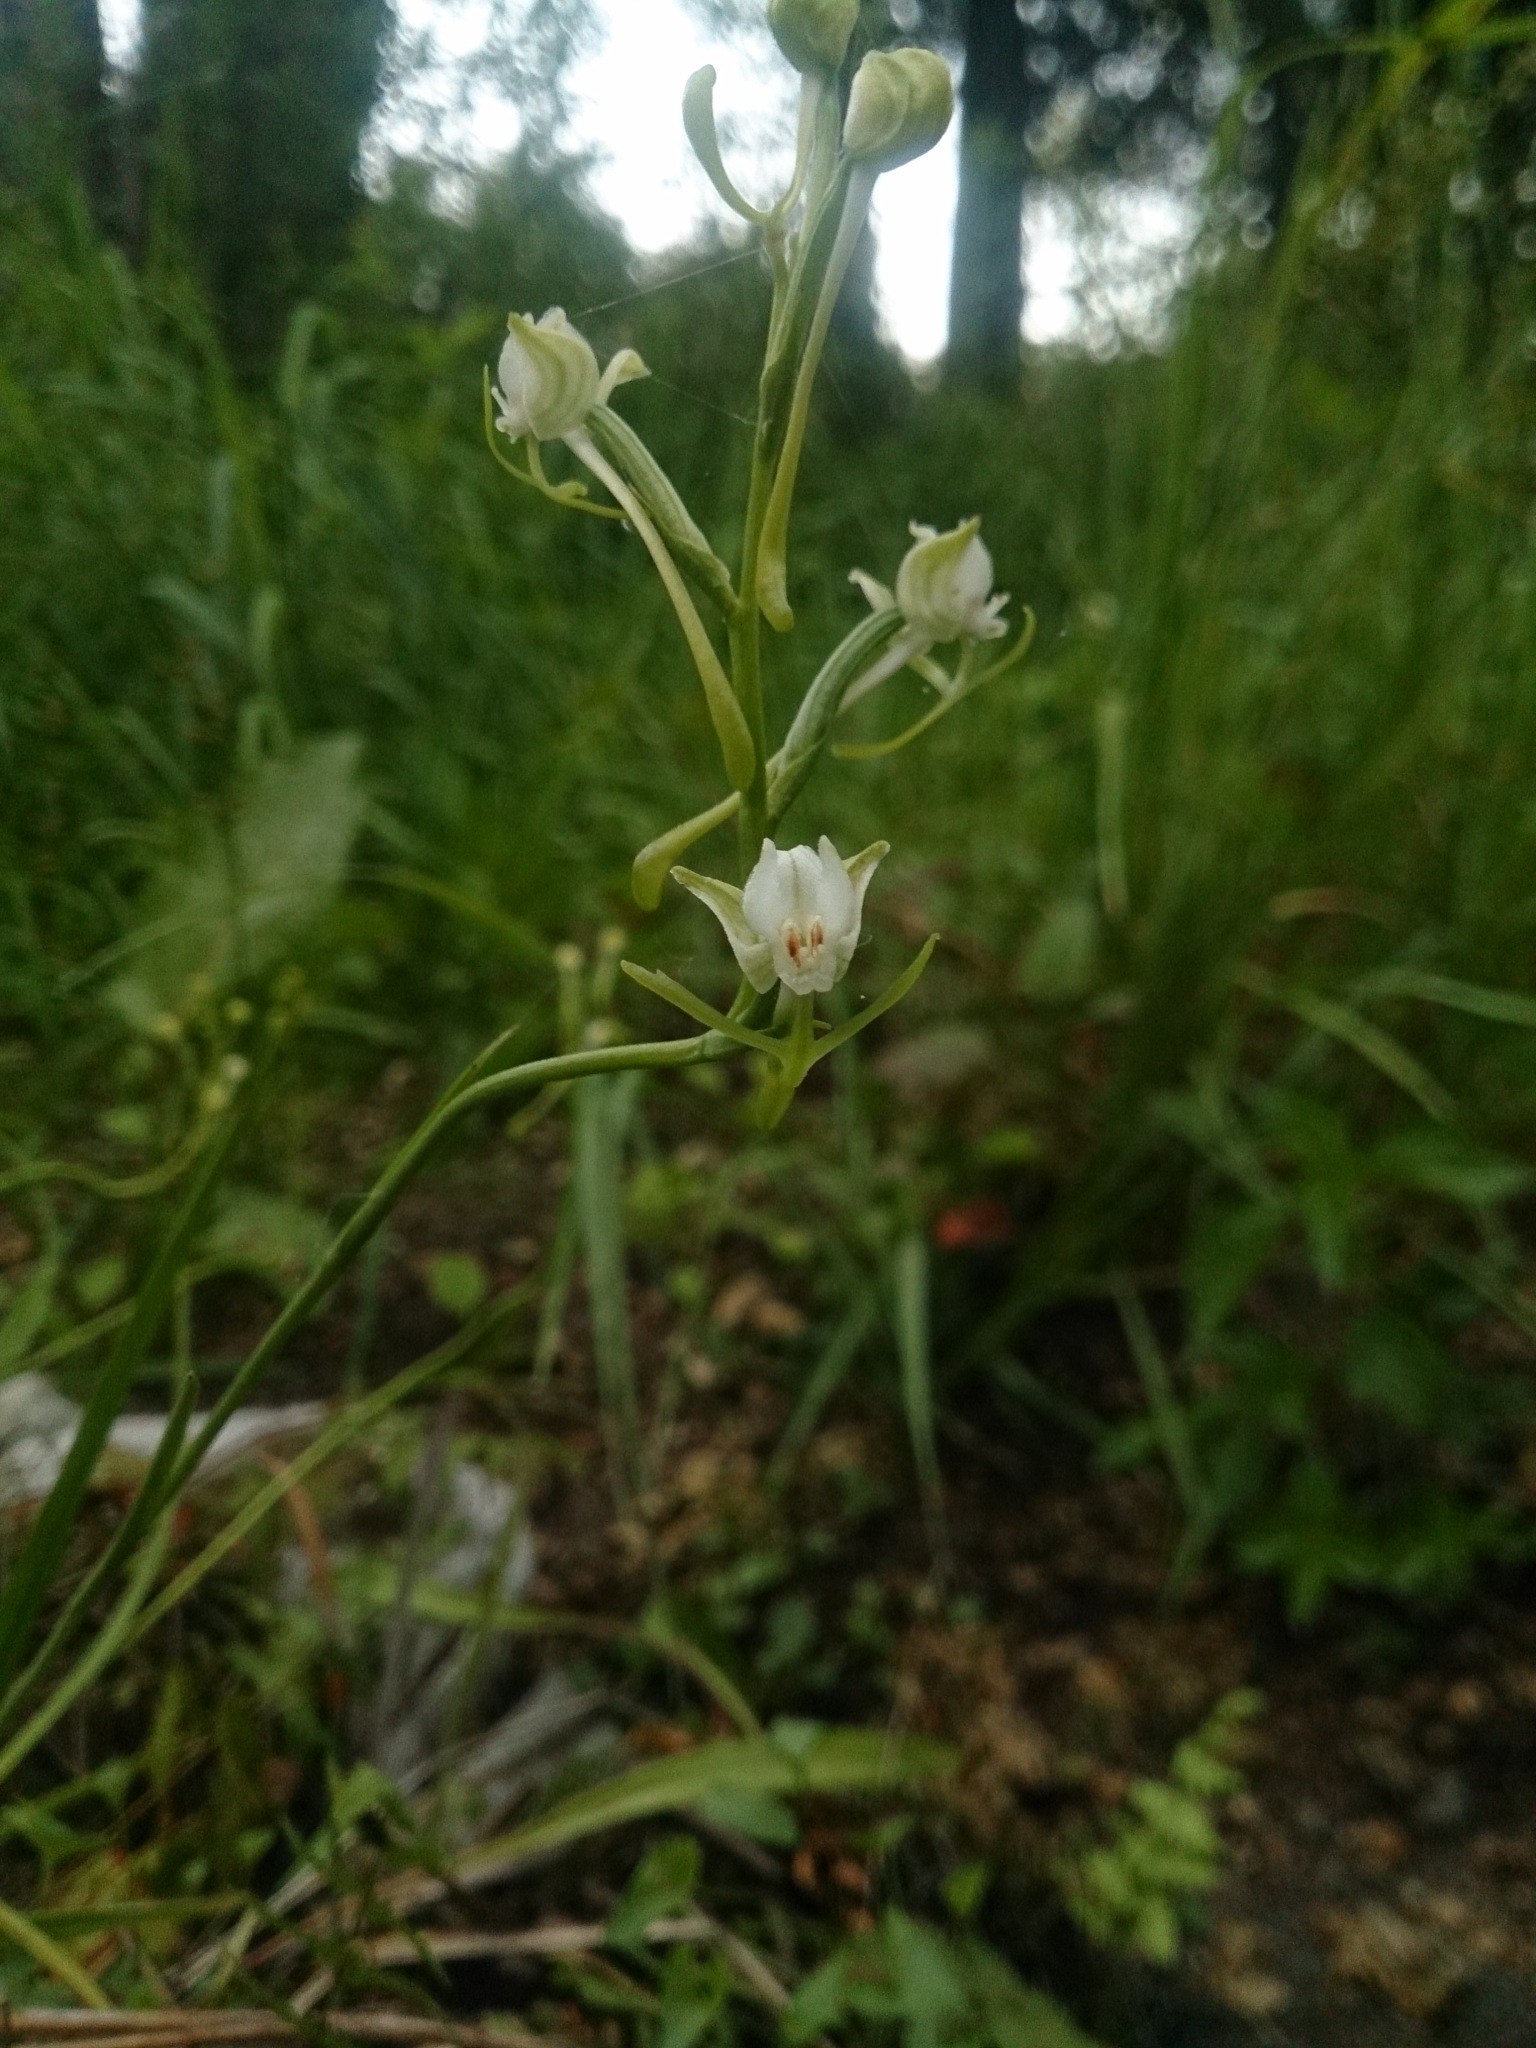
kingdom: Plantae
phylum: Tracheophyta
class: Liliopsida
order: Asparagales
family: Orchidaceae
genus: Habenaria
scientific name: Habenaria sagittifera
